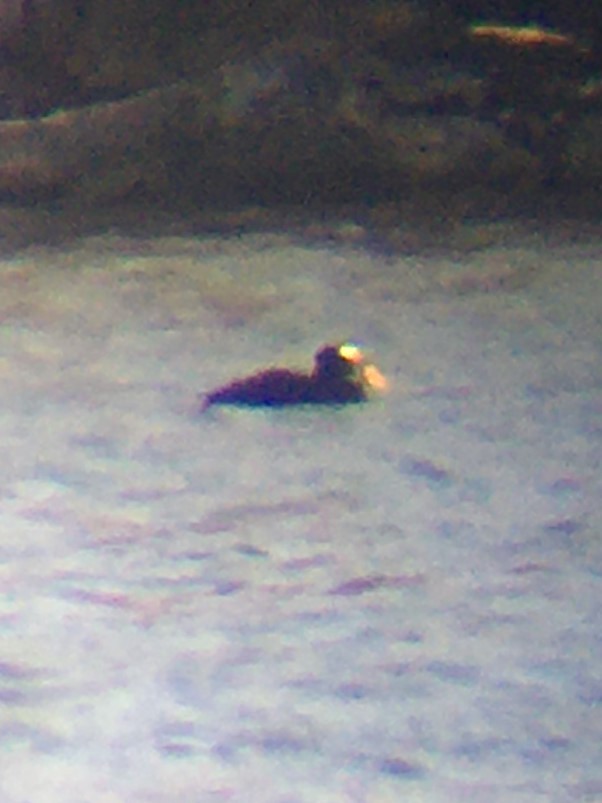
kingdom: Animalia
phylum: Chordata
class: Aves
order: Anseriformes
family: Anatidae
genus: Melanitta
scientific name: Melanitta perspicillata
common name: Surf scoter
